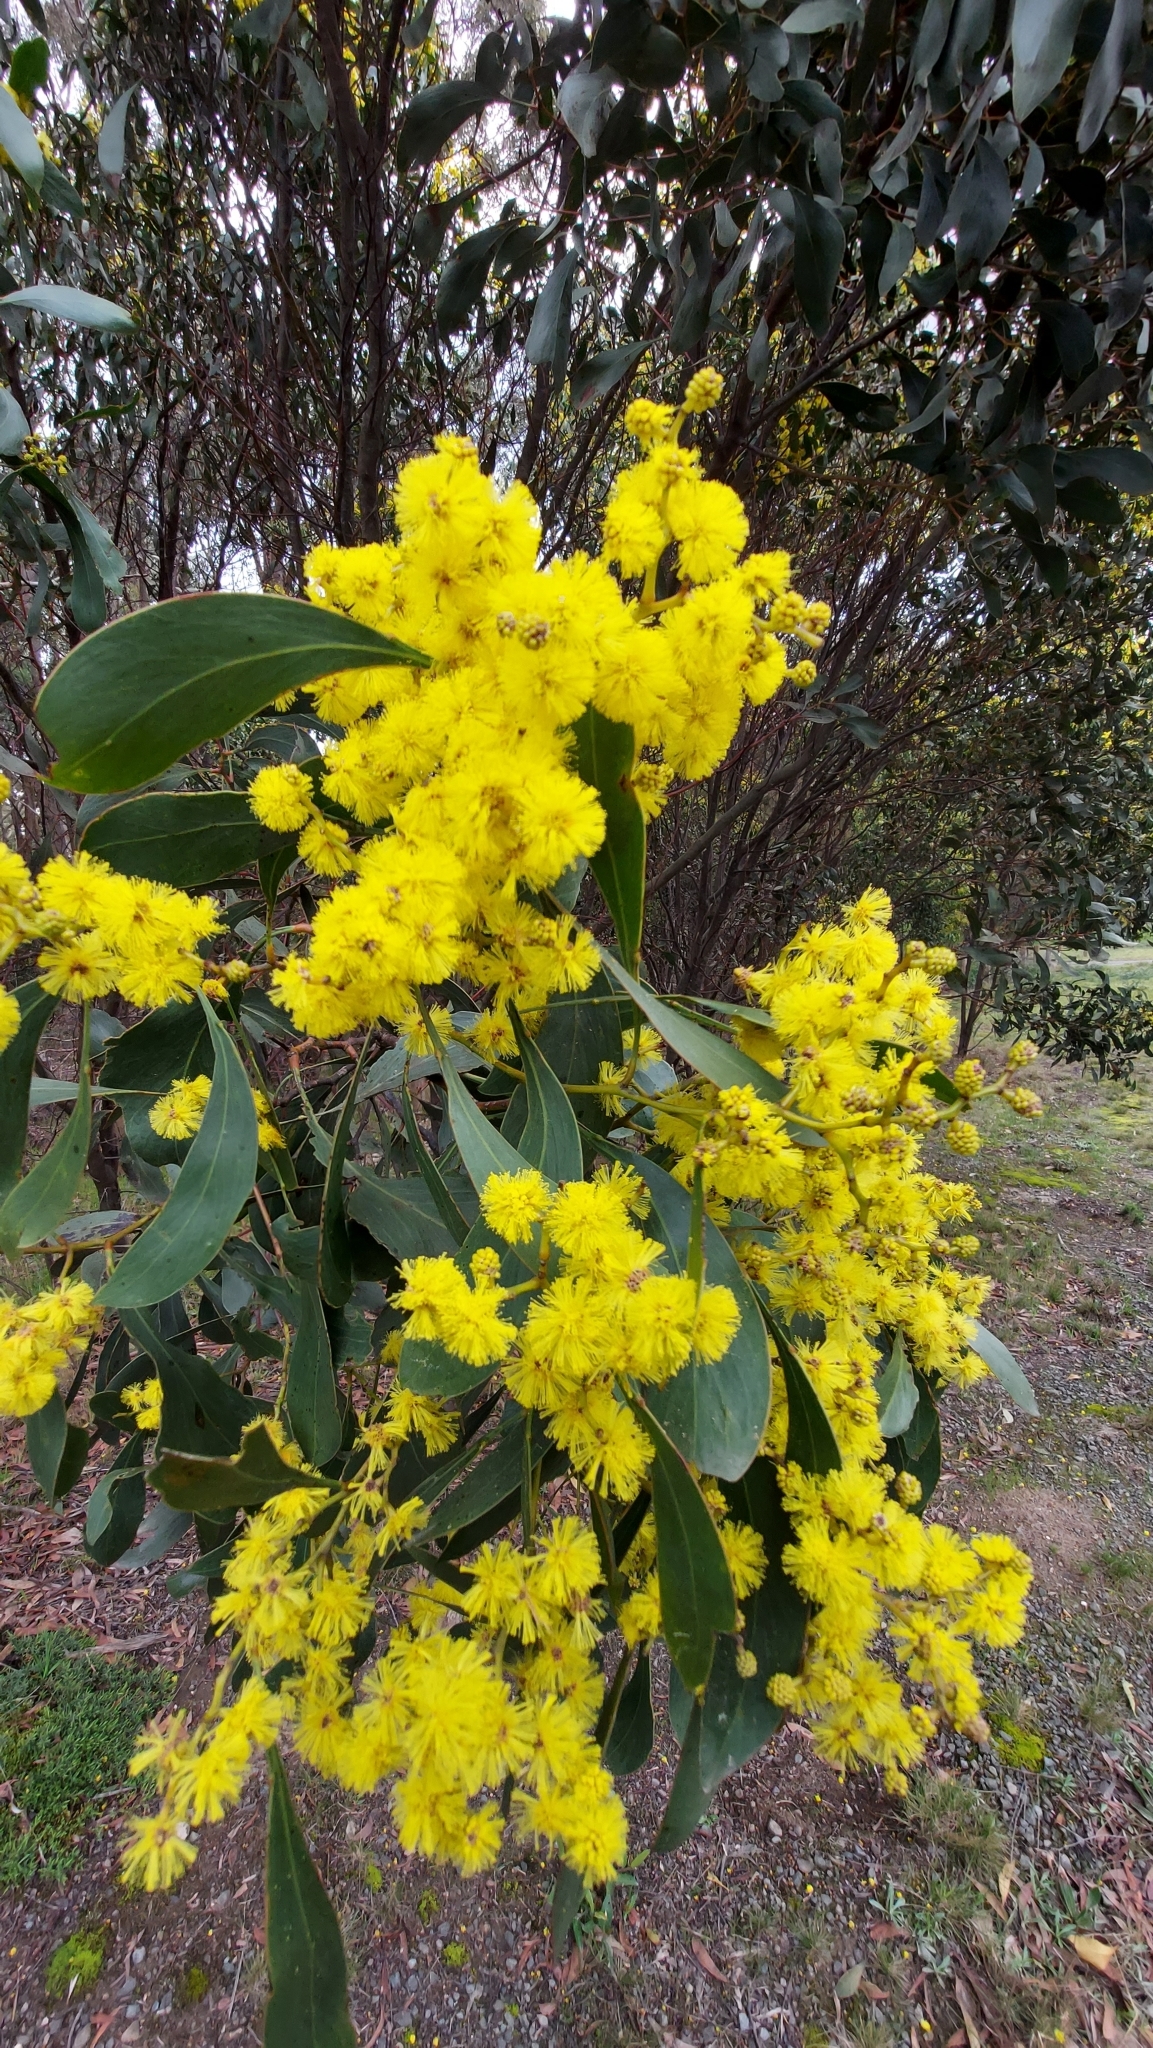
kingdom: Plantae
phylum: Tracheophyta
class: Magnoliopsida
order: Fabales
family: Fabaceae
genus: Acacia
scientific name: Acacia pycnantha
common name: Golden wattle
